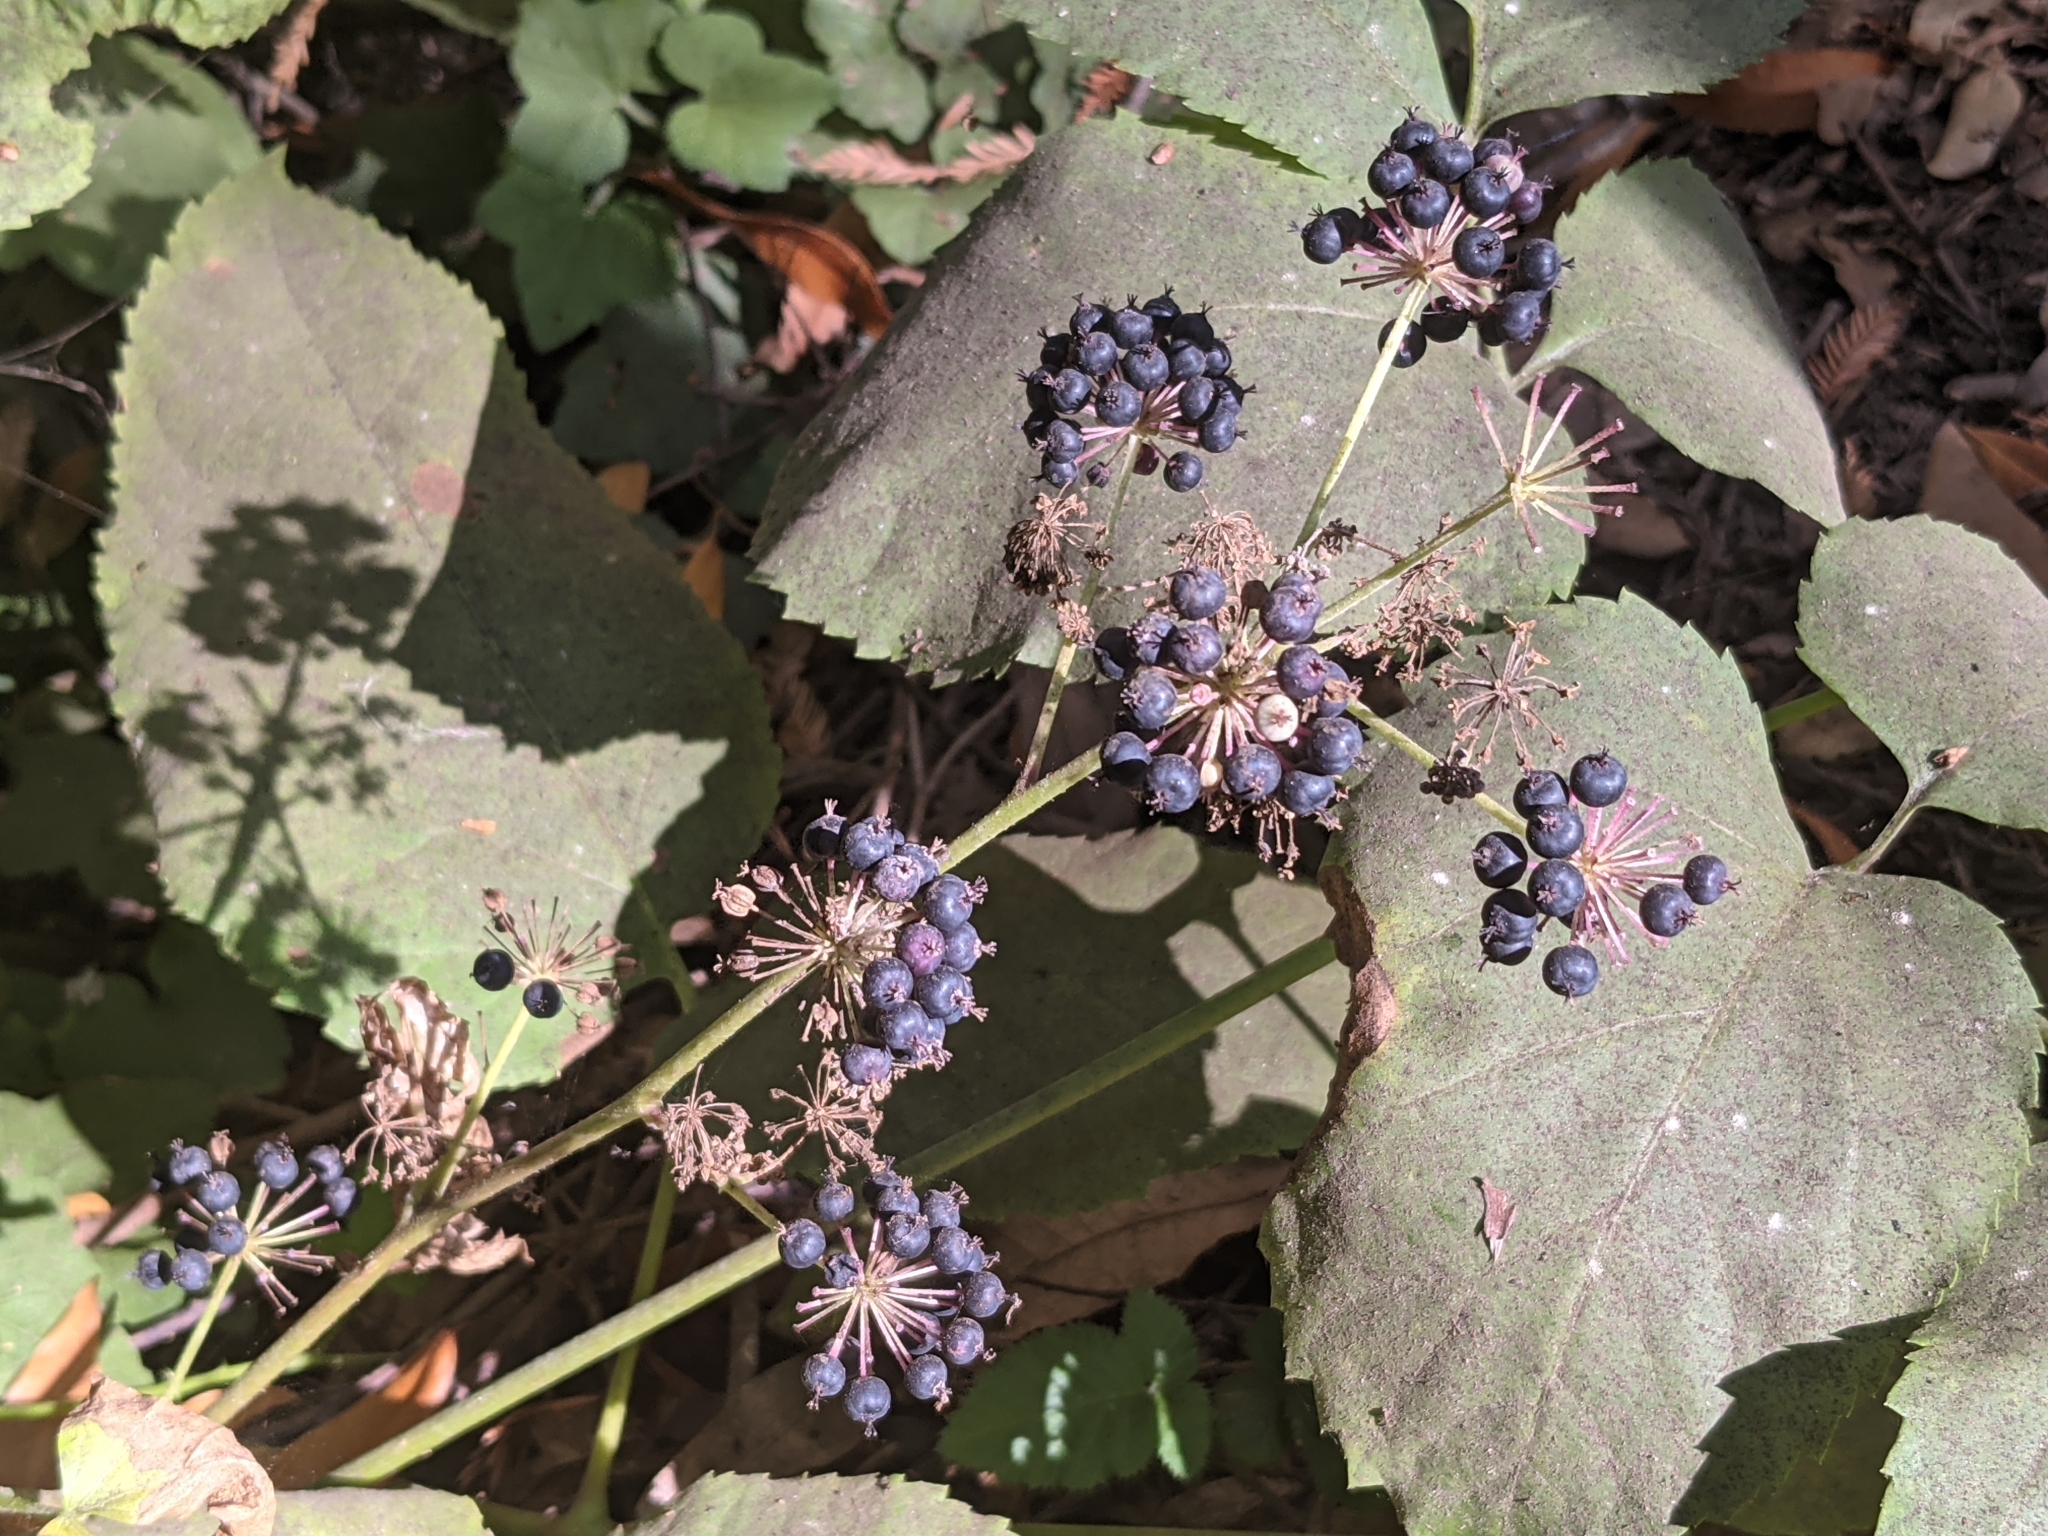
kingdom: Plantae
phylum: Tracheophyta
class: Magnoliopsida
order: Apiales
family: Araliaceae
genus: Aralia
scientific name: Aralia californica
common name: California-ginseng
